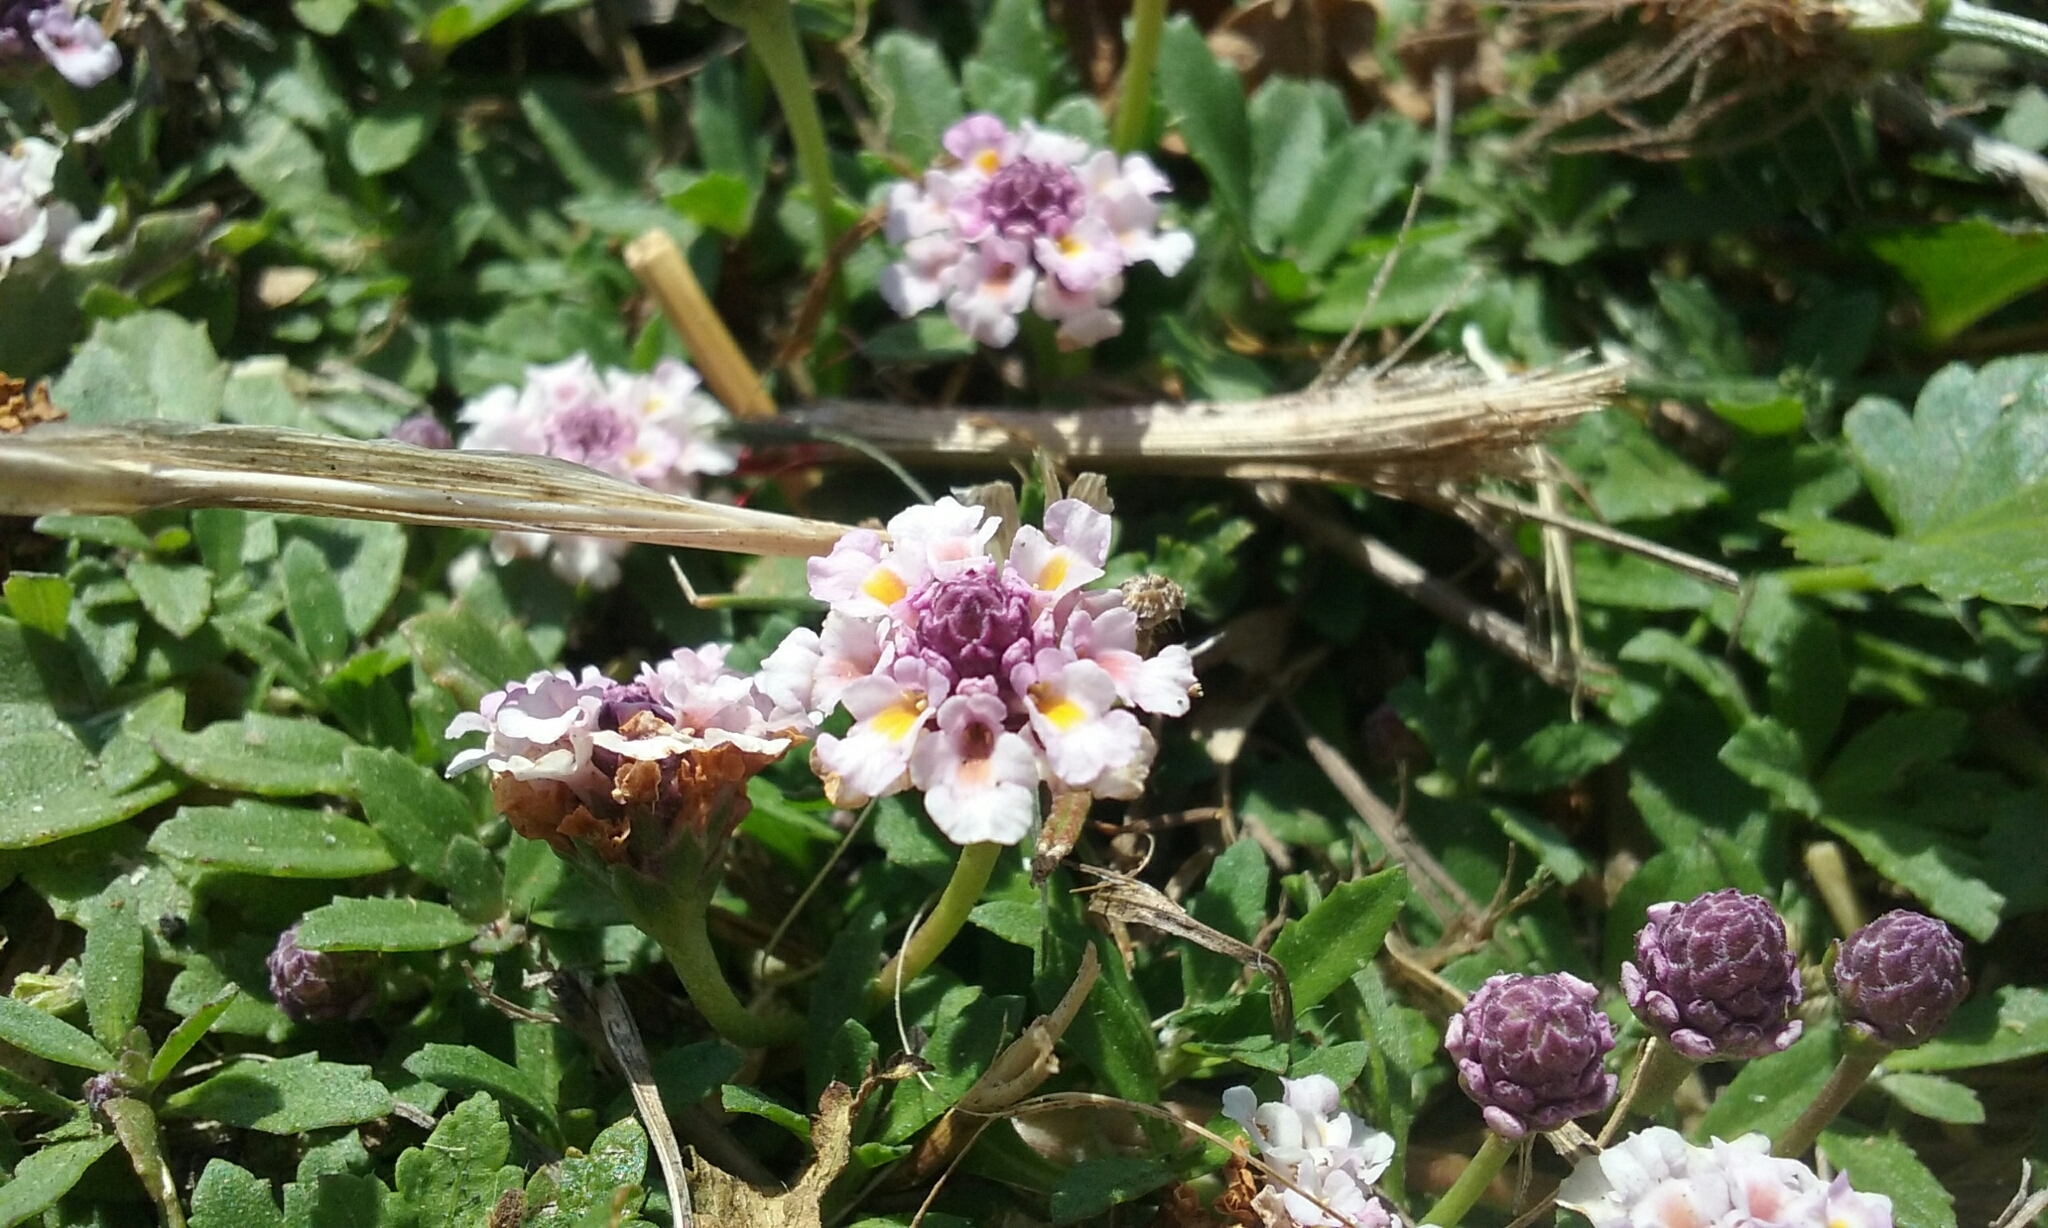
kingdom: Plantae
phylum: Tracheophyta
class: Magnoliopsida
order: Lamiales
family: Verbenaceae
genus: Phyla
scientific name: Phyla nodiflora
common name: Frogfruit
